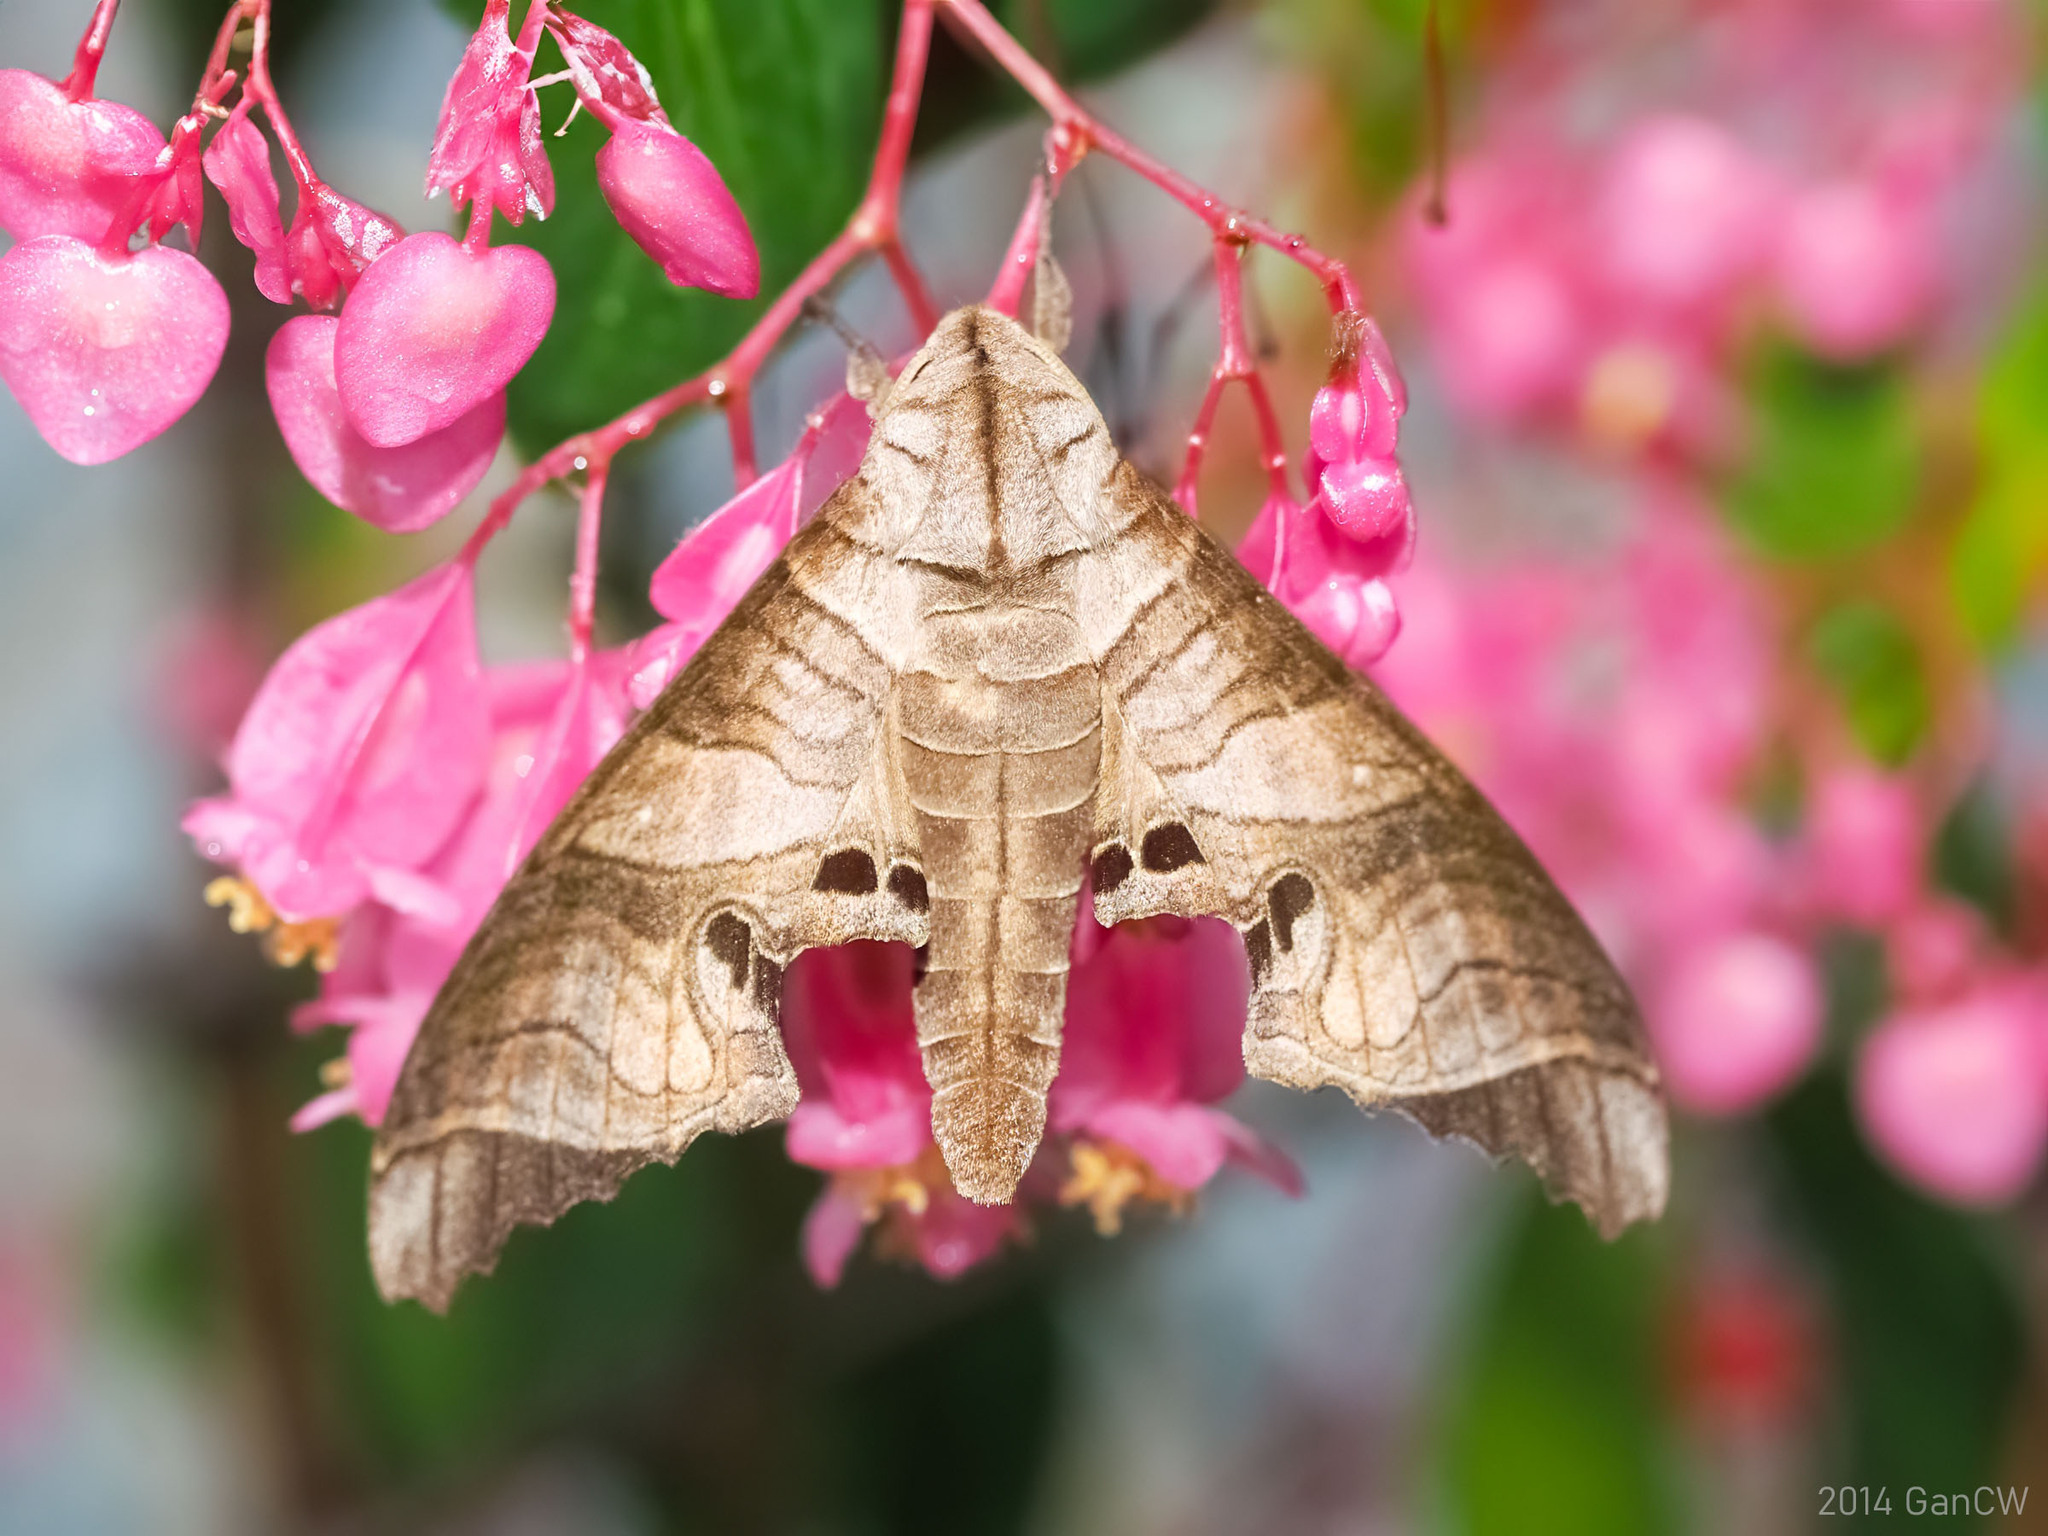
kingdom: Animalia
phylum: Arthropoda
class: Insecta
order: Lepidoptera
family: Sphingidae
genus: Marumba
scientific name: Marumba spectabilis
